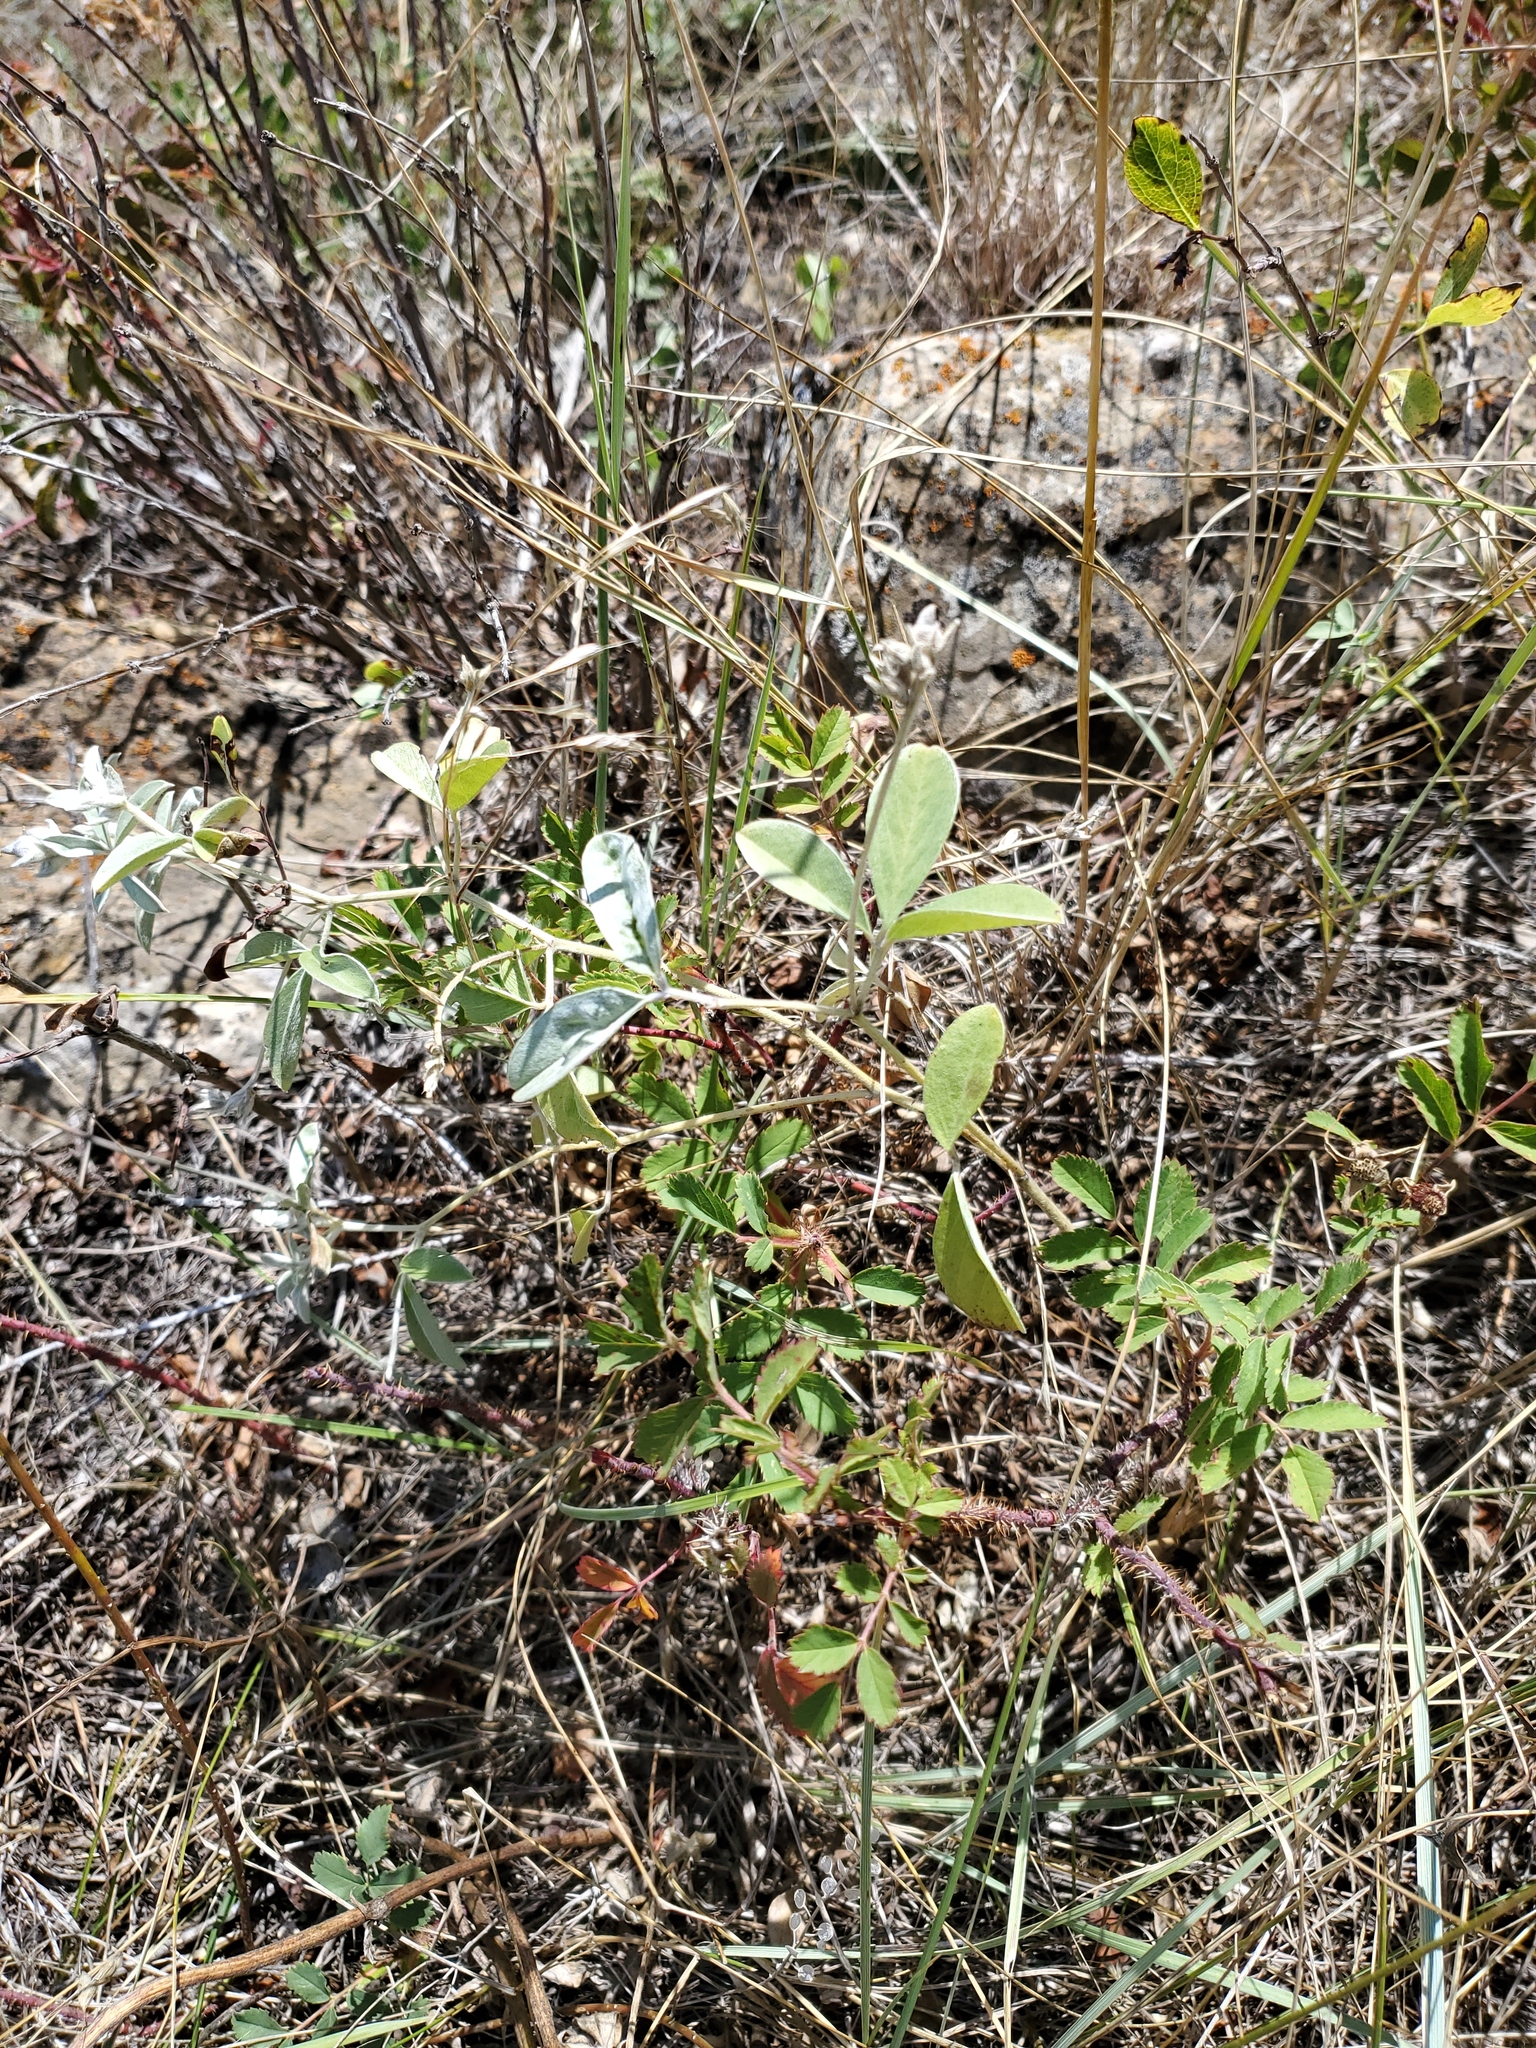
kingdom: Plantae
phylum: Tracheophyta
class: Magnoliopsida
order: Fabales
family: Fabaceae
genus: Pediomelum
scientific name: Pediomelum argophyllum
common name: Silver-leaved indian breadroot
